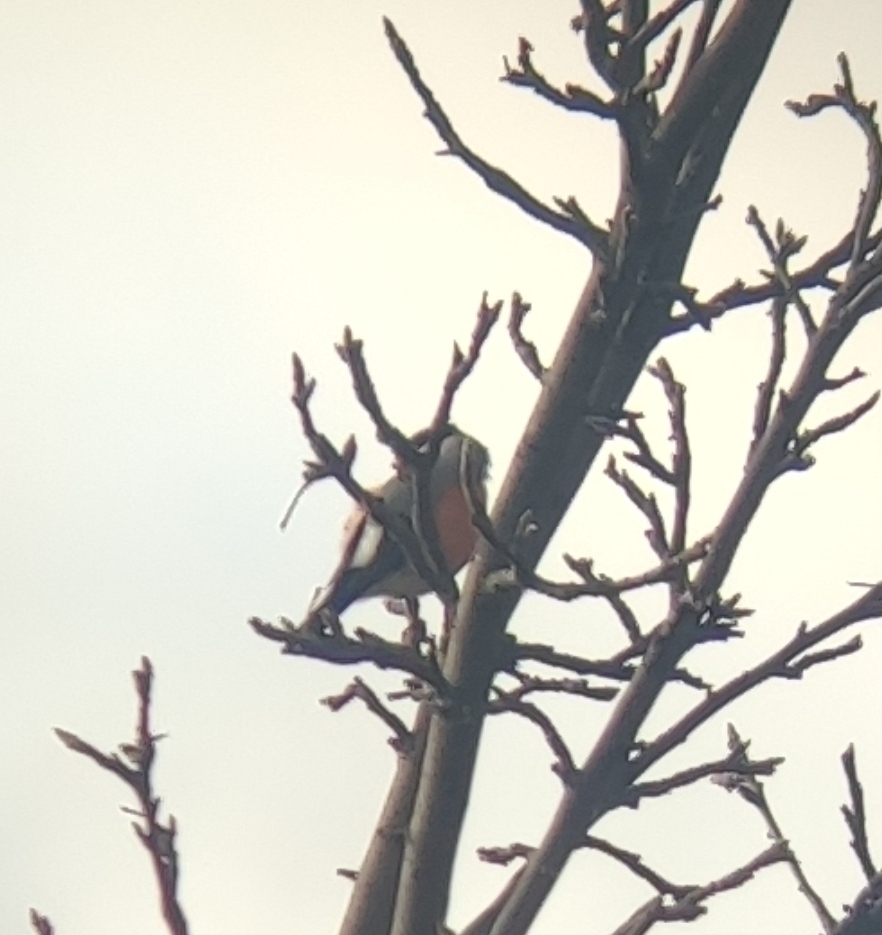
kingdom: Animalia
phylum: Chordata
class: Aves
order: Passeriformes
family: Fringillidae
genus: Pyrrhula
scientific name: Pyrrhula pyrrhula
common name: Eurasian bullfinch
